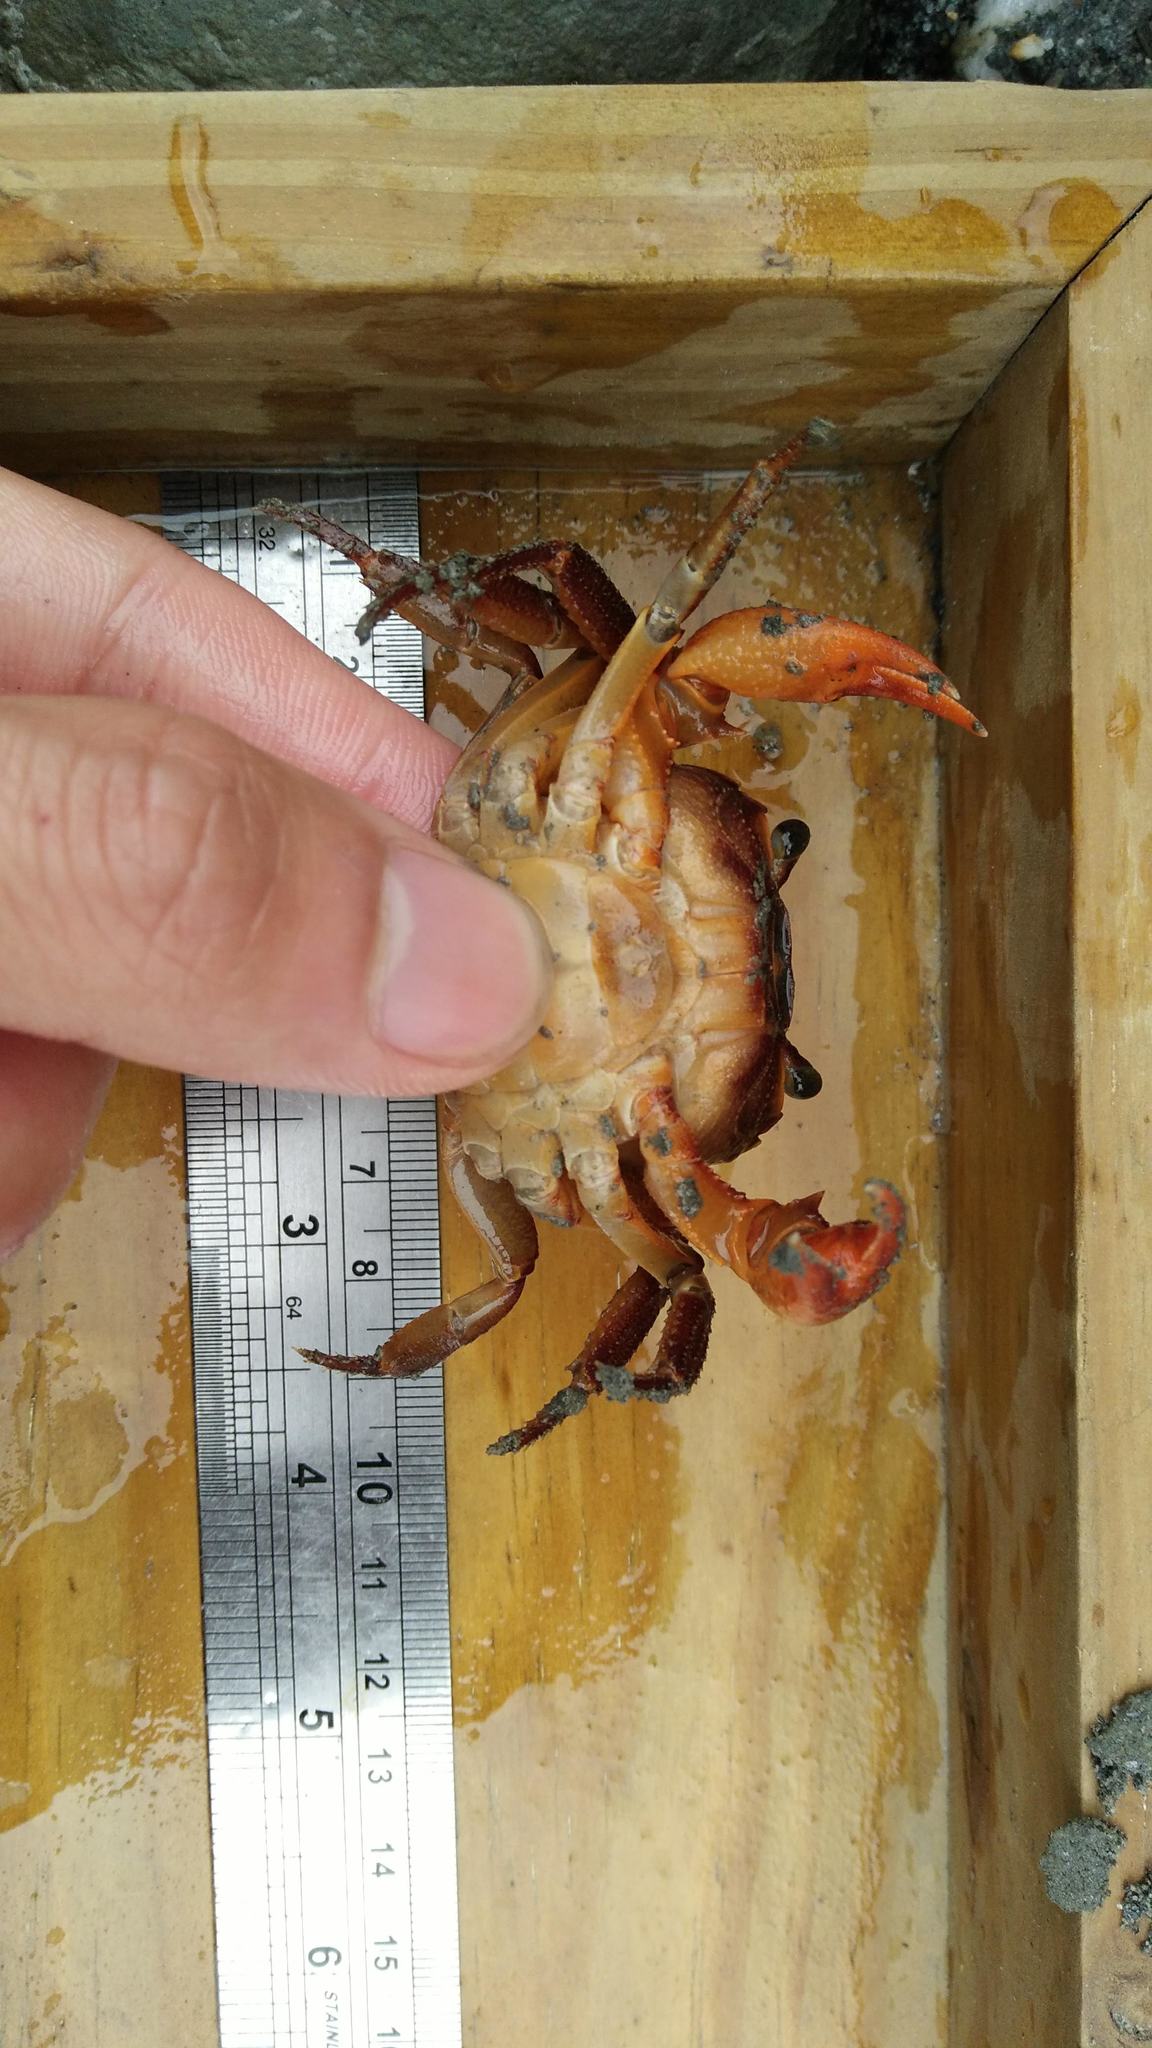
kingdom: Animalia
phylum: Arthropoda
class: Malacostraca
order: Decapoda
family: Potamidae
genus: Candidiopotamon
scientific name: Candidiopotamon rathbuni
